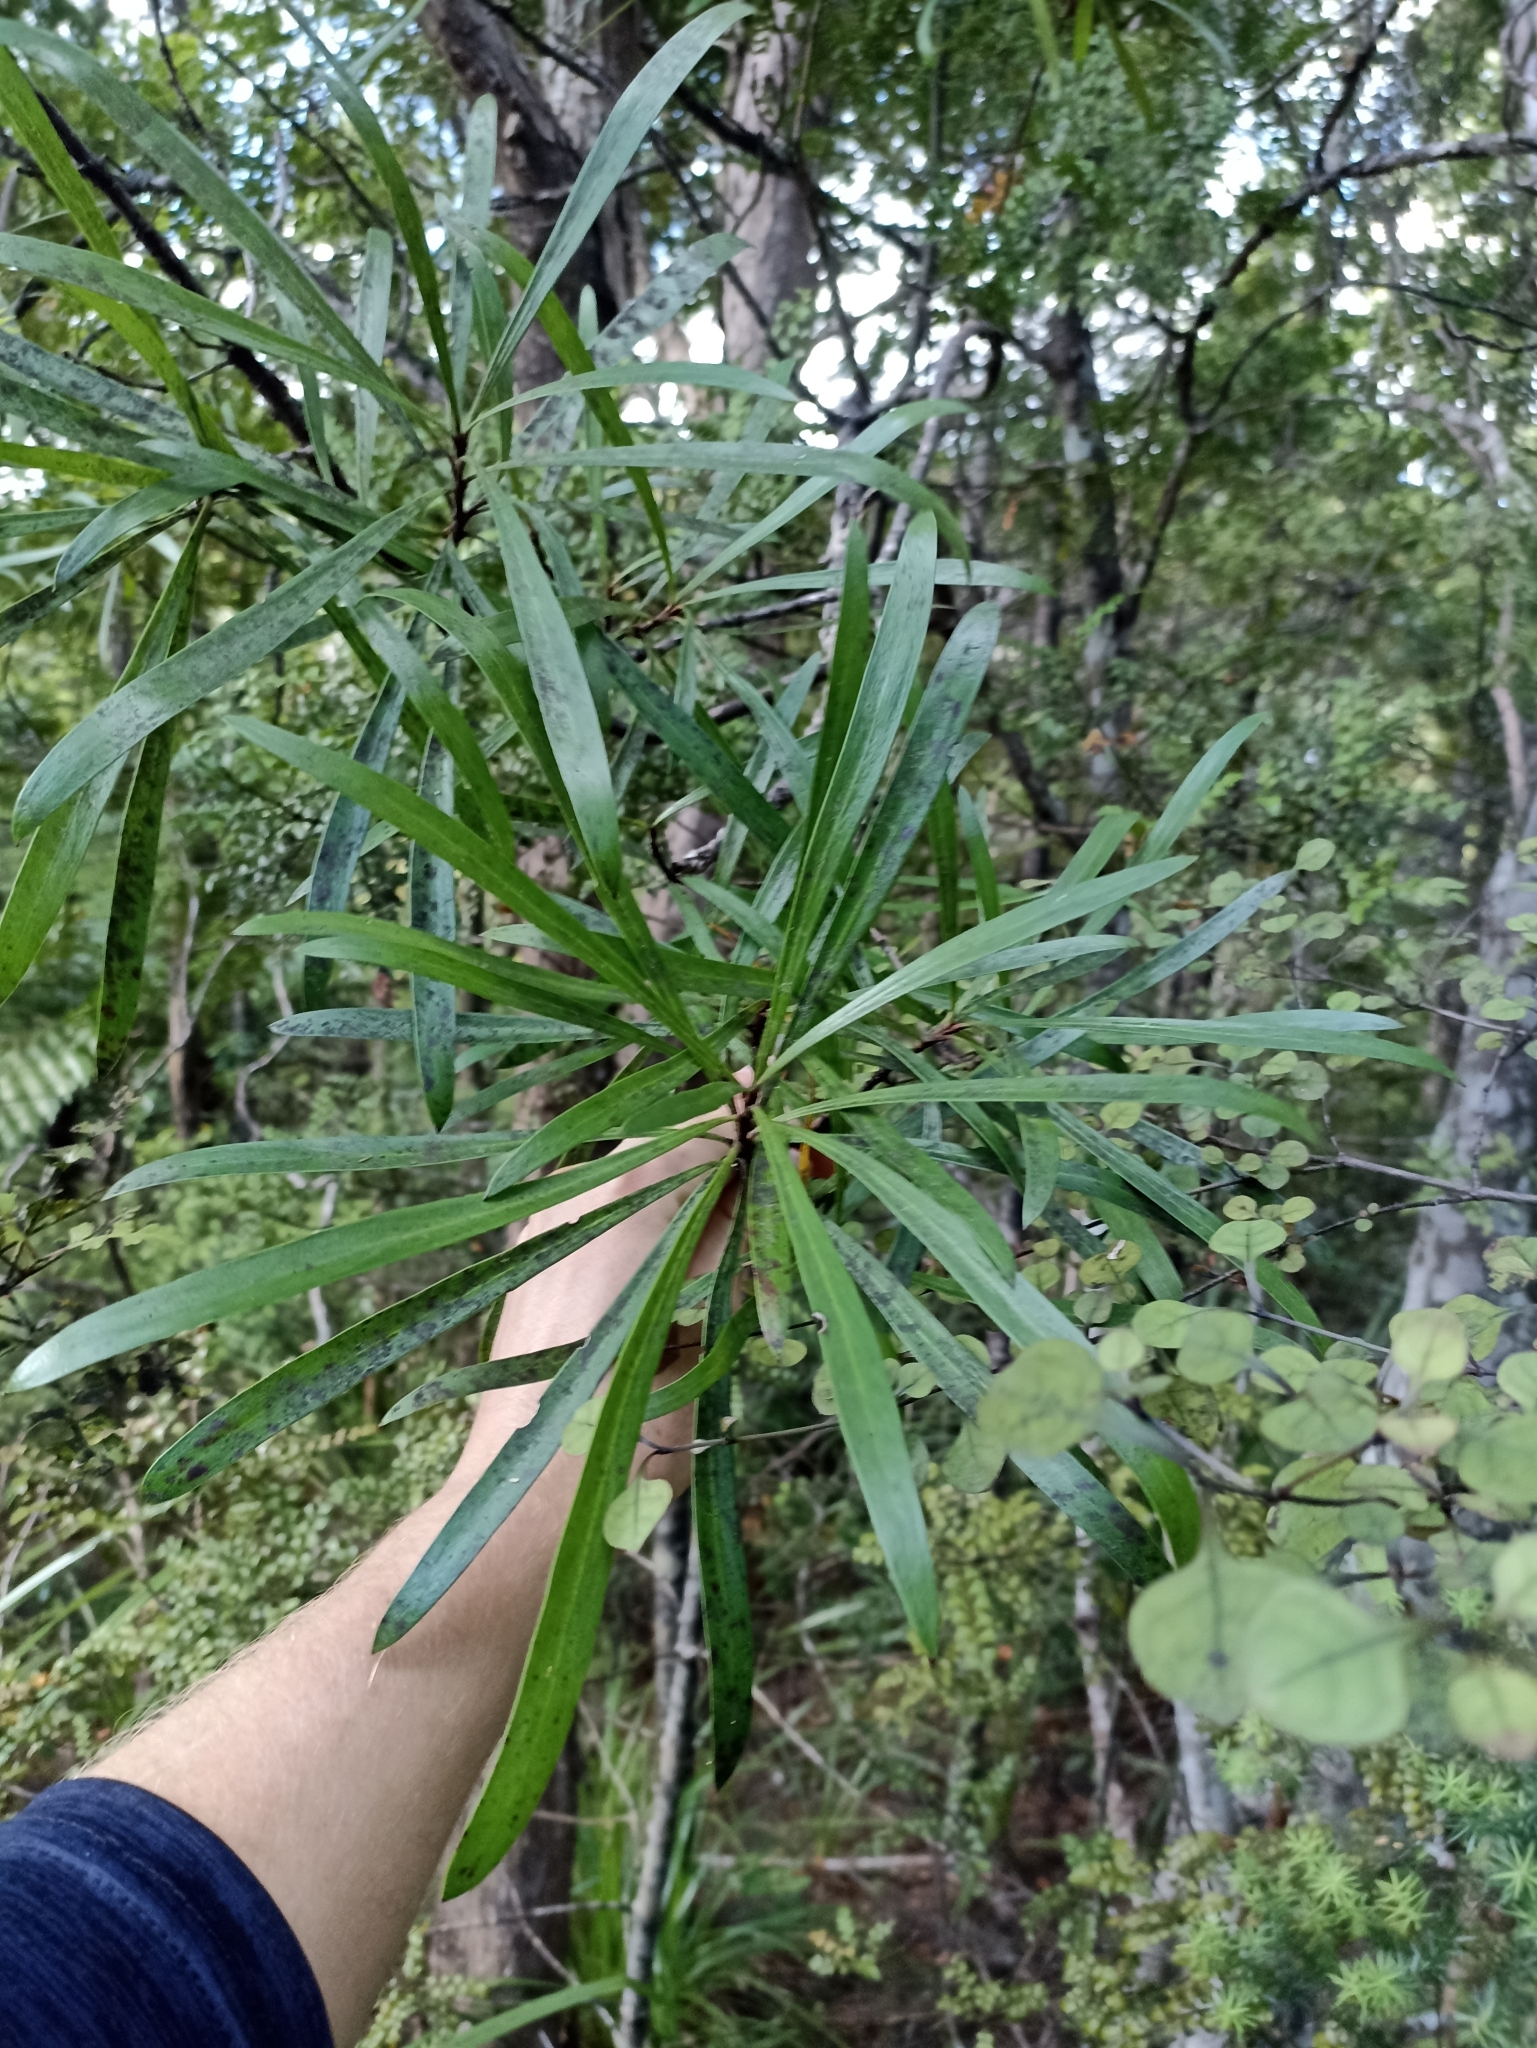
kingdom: Plantae
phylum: Tracheophyta
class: Magnoliopsida
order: Proteales
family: Proteaceae
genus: Toronia
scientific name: Toronia toru
